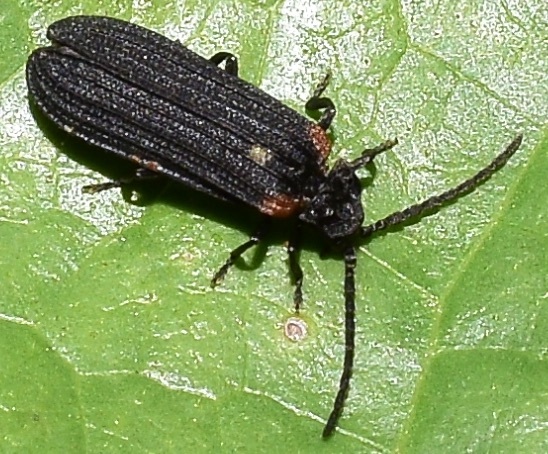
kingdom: Animalia
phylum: Arthropoda
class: Insecta
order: Coleoptera
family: Lycidae
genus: Greenarus
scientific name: Greenarus thoracicus
